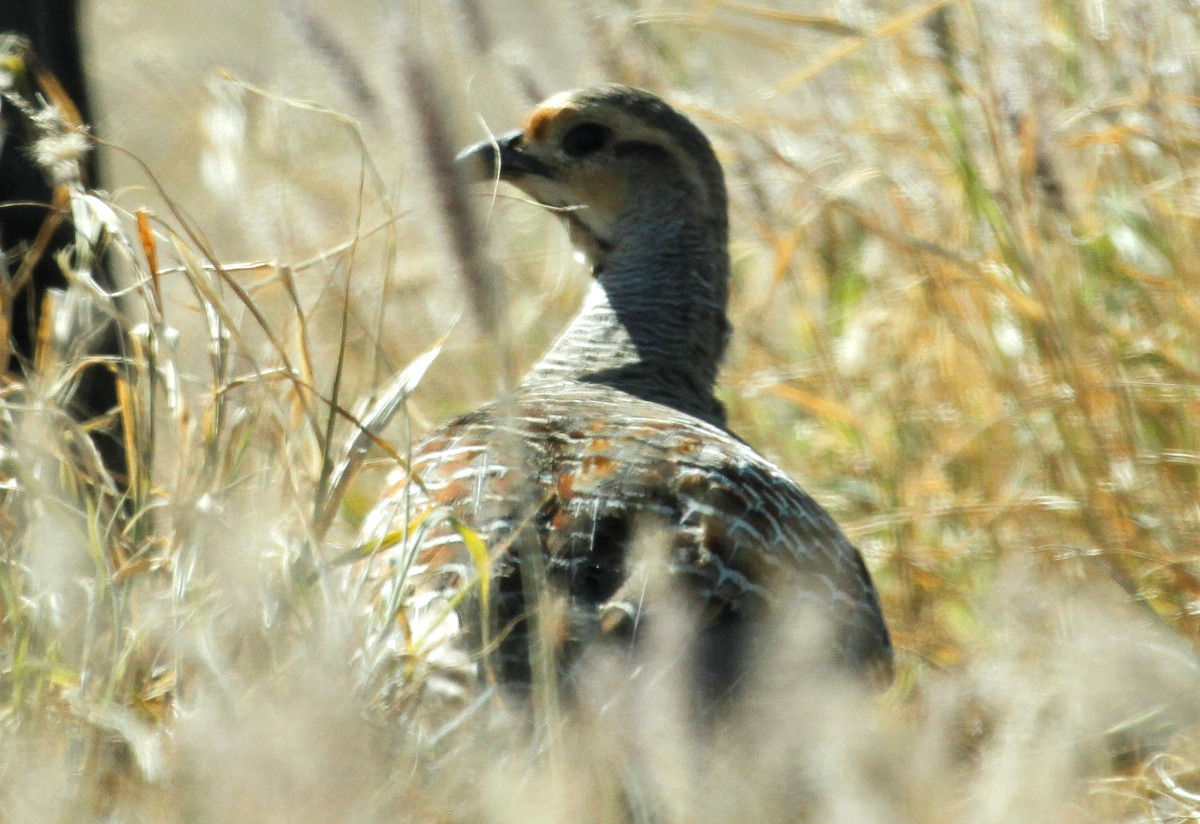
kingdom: Animalia
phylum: Chordata
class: Aves
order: Galliformes
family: Phasianidae
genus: Ortygornis
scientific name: Ortygornis pondicerianus
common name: Grey francolin
